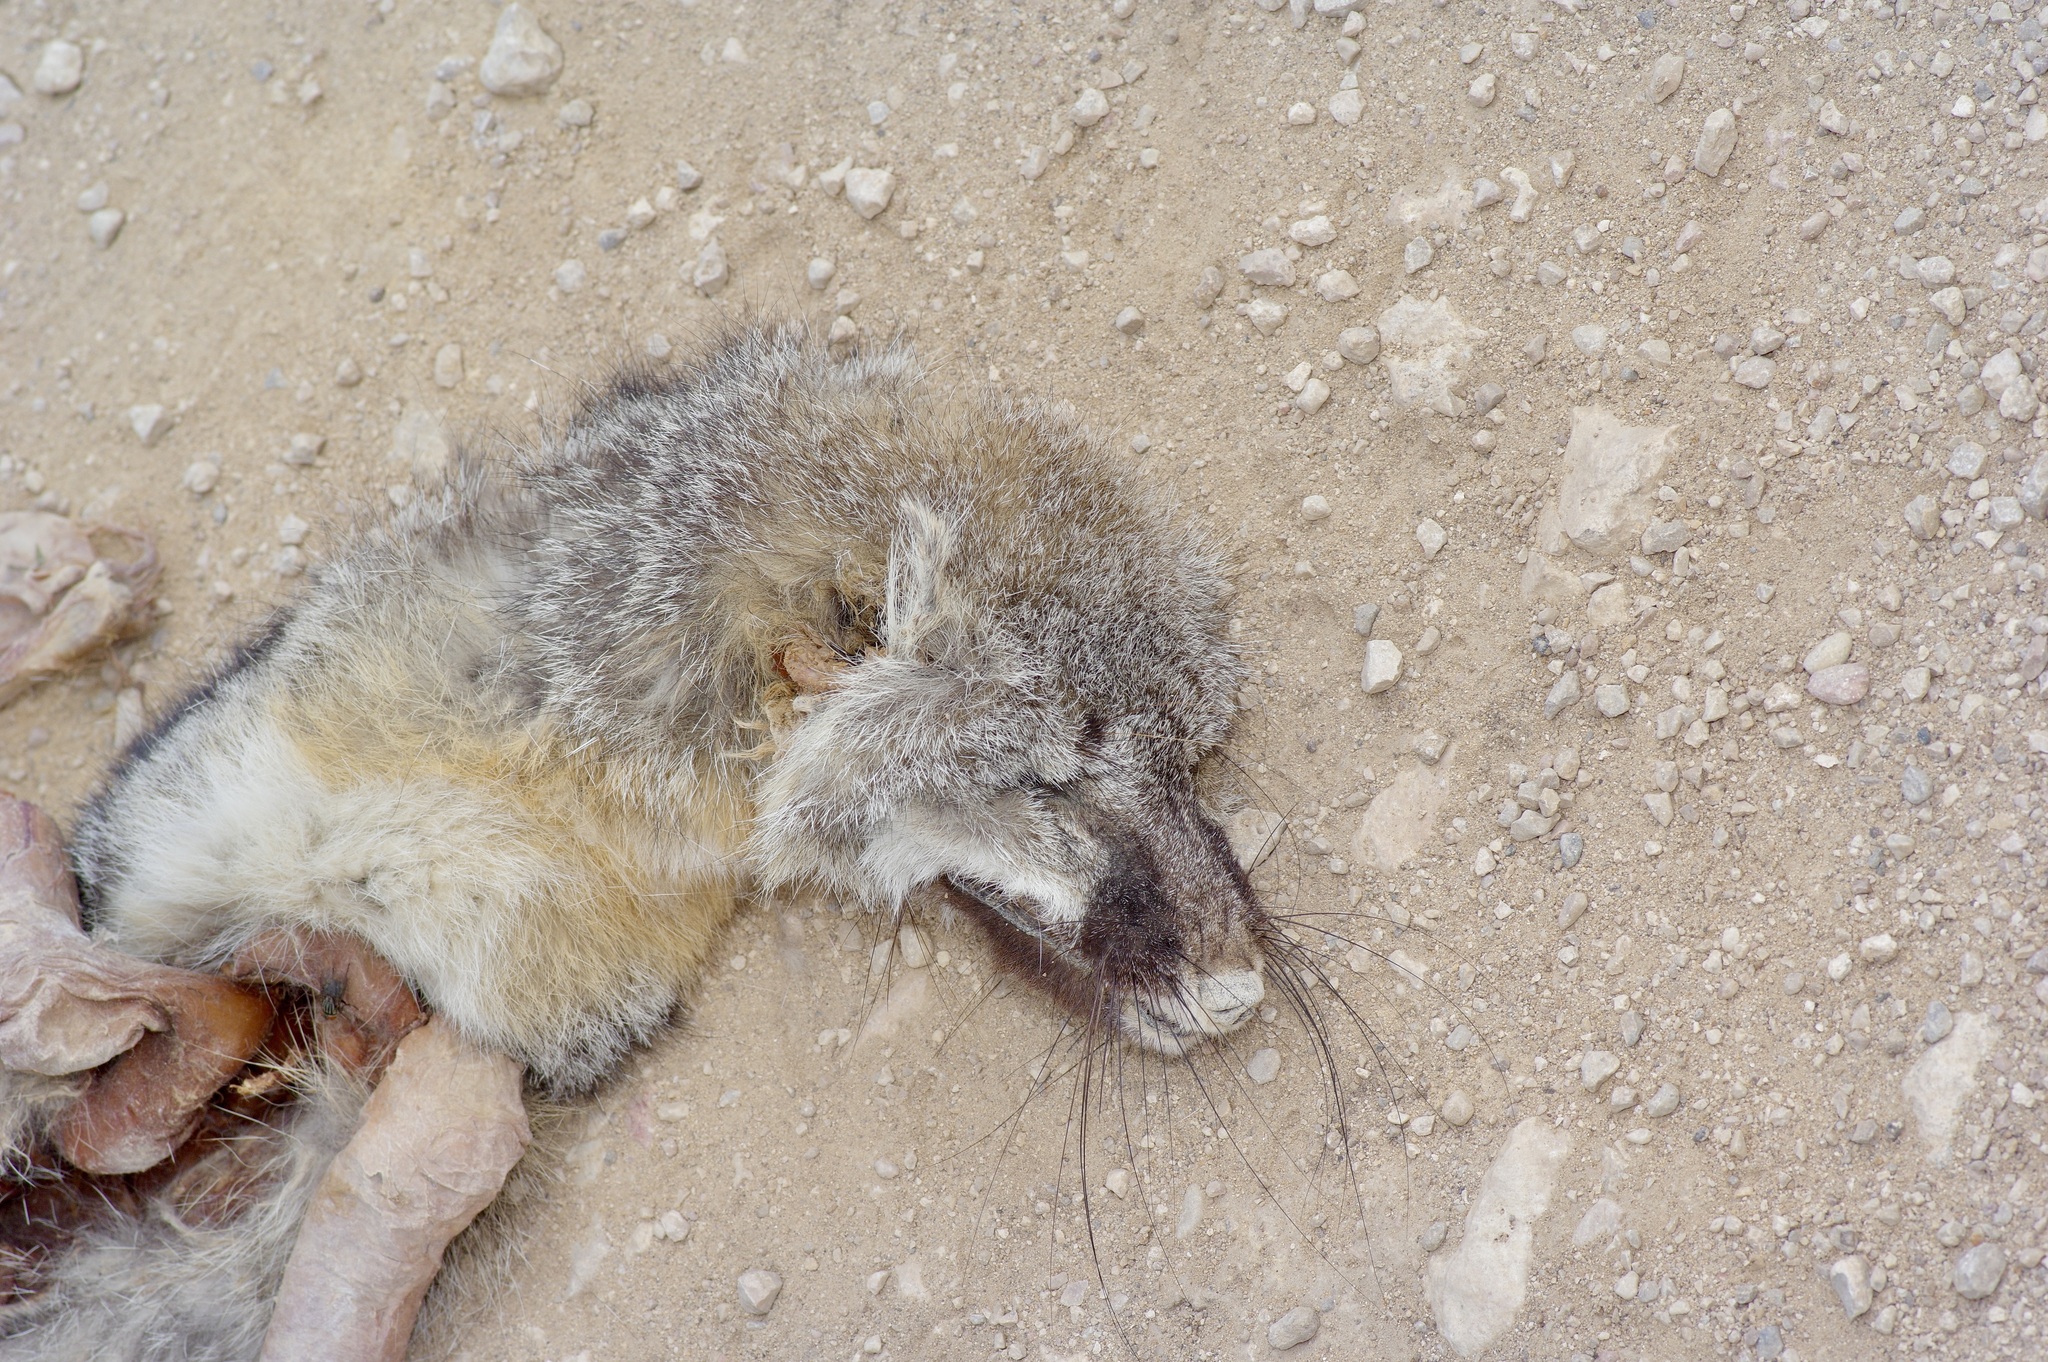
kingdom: Animalia
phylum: Chordata
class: Mammalia
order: Carnivora
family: Canidae
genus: Urocyon
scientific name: Urocyon cinereoargenteus
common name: Gray fox
